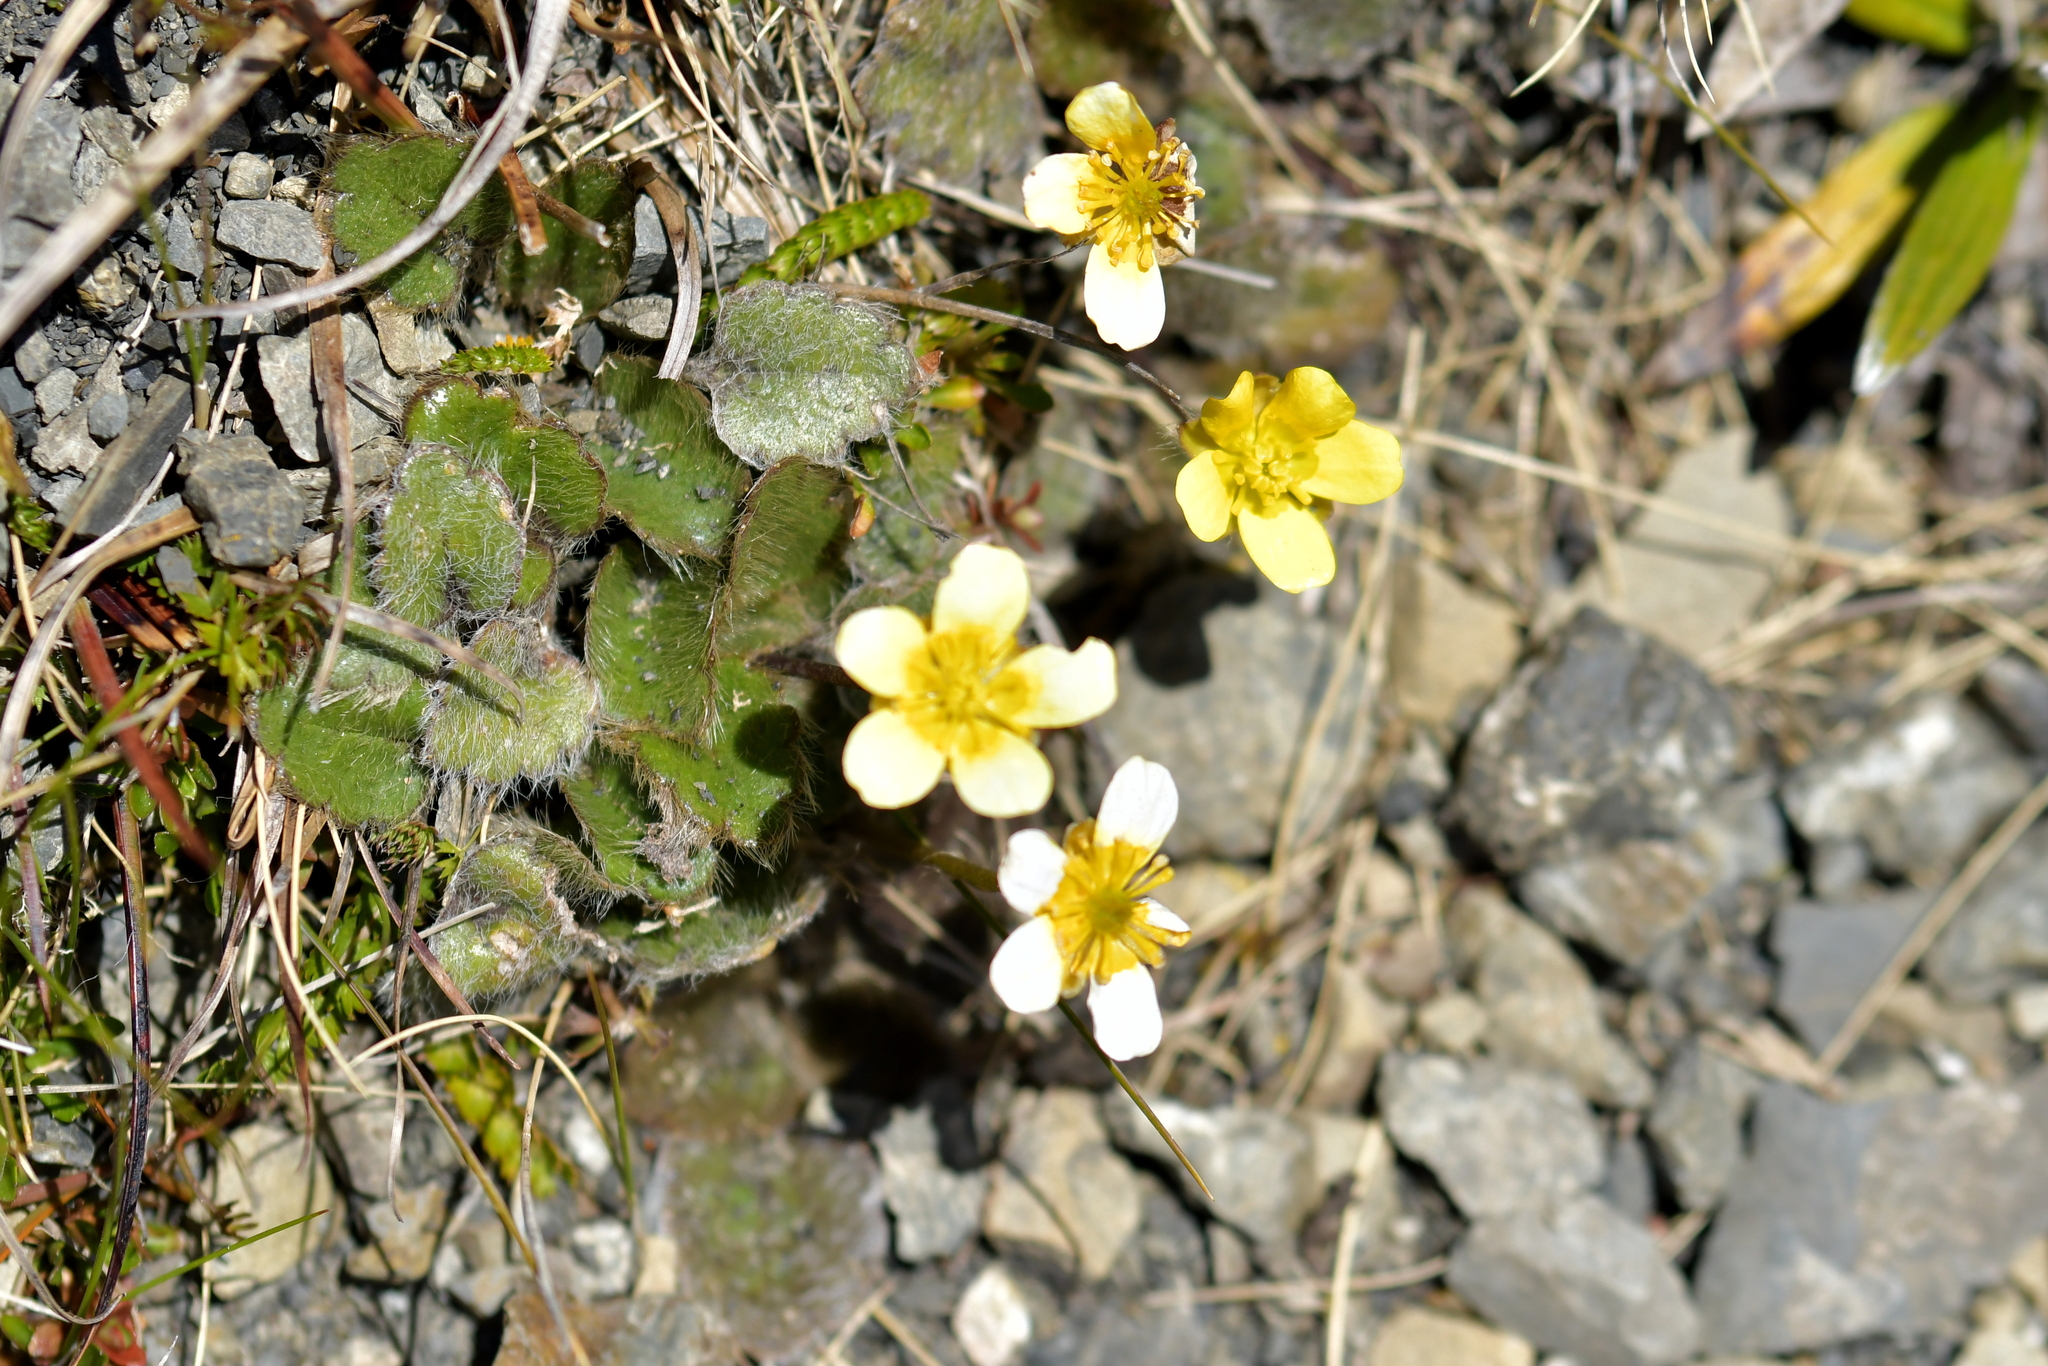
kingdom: Plantae
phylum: Tracheophyta
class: Magnoliopsida
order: Ranunculales
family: Ranunculaceae
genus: Ranunculus
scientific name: Ranunculus insignis
